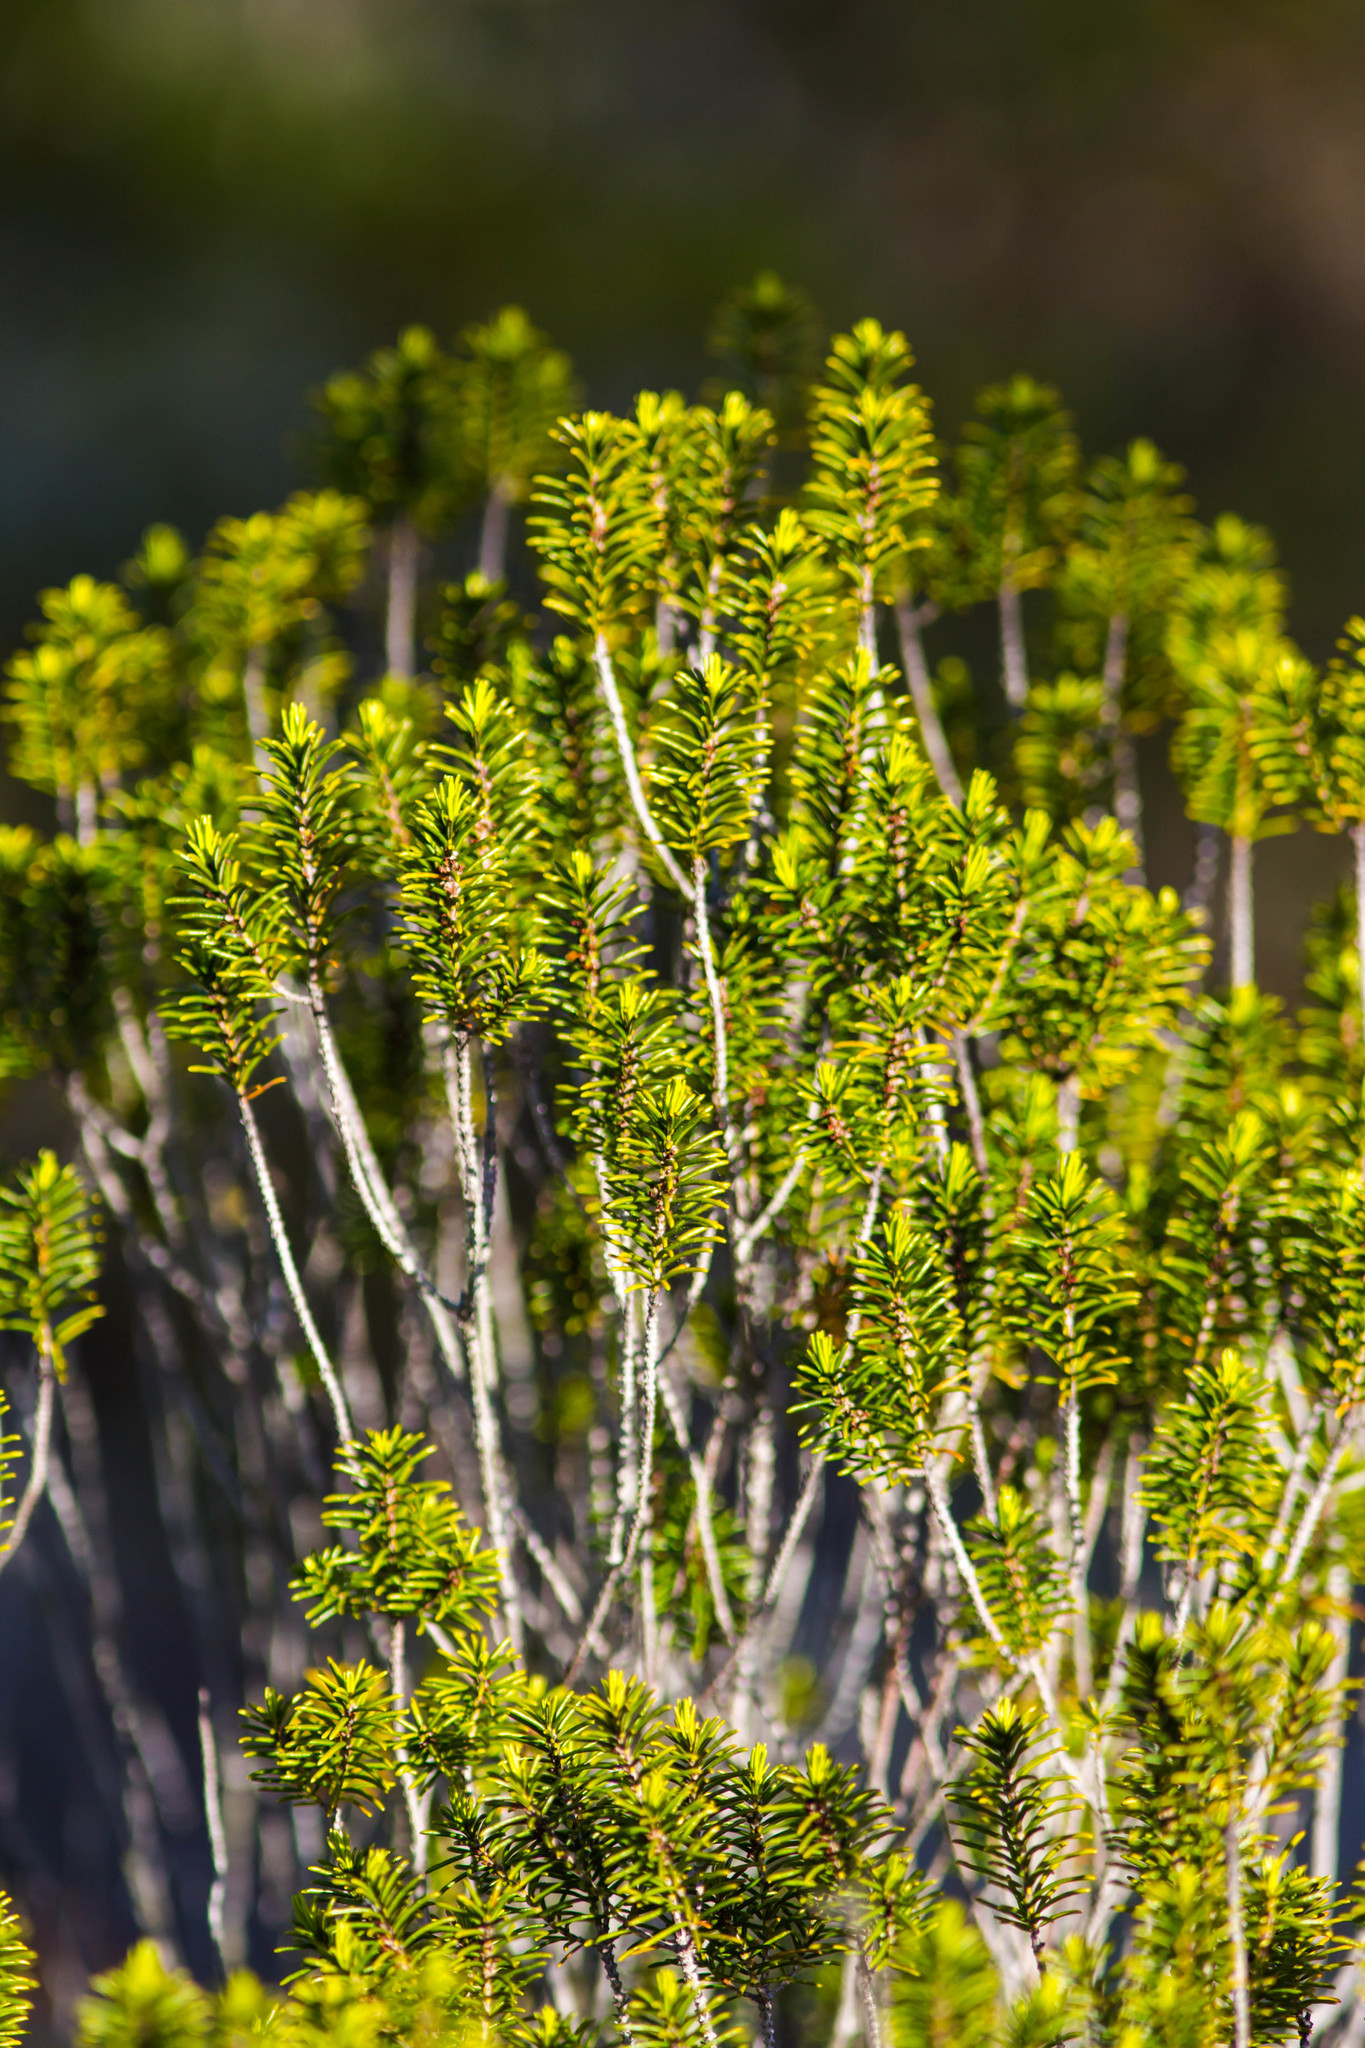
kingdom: Plantae
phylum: Tracheophyta
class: Magnoliopsida
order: Ericales
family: Ericaceae
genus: Ceratiola
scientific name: Ceratiola ericoides
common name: Sandhill-rosemary
